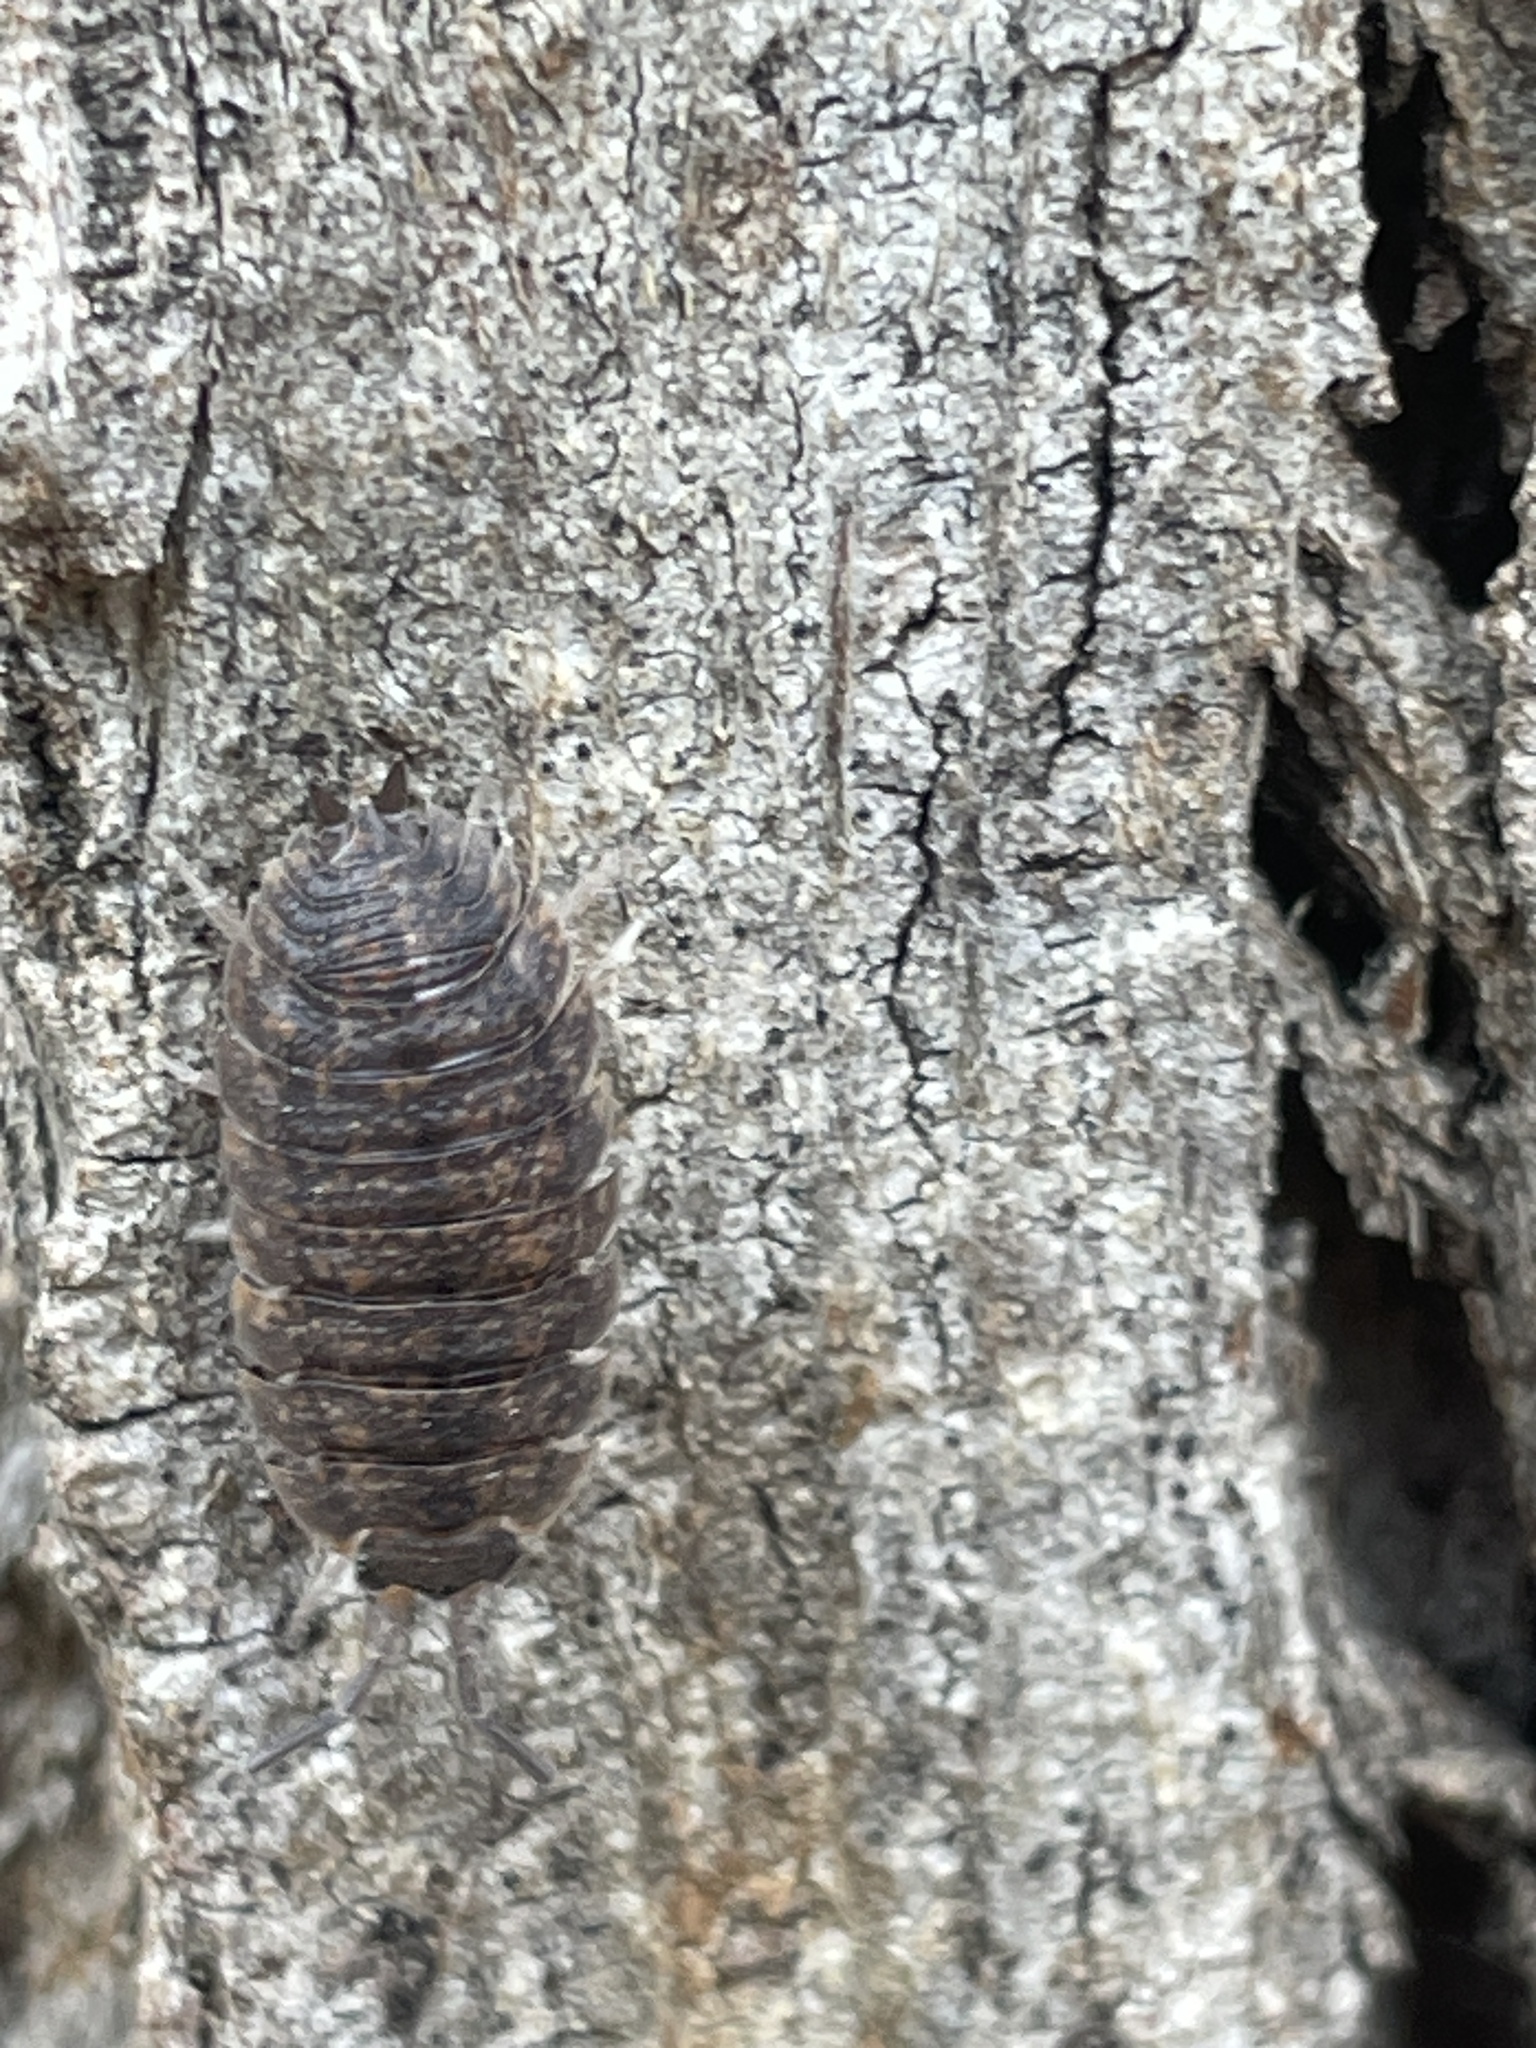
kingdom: Animalia
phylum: Arthropoda
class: Malacostraca
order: Isopoda
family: Porcellionidae
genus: Porcellio
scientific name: Porcellio scaber
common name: Common rough woodlouse
